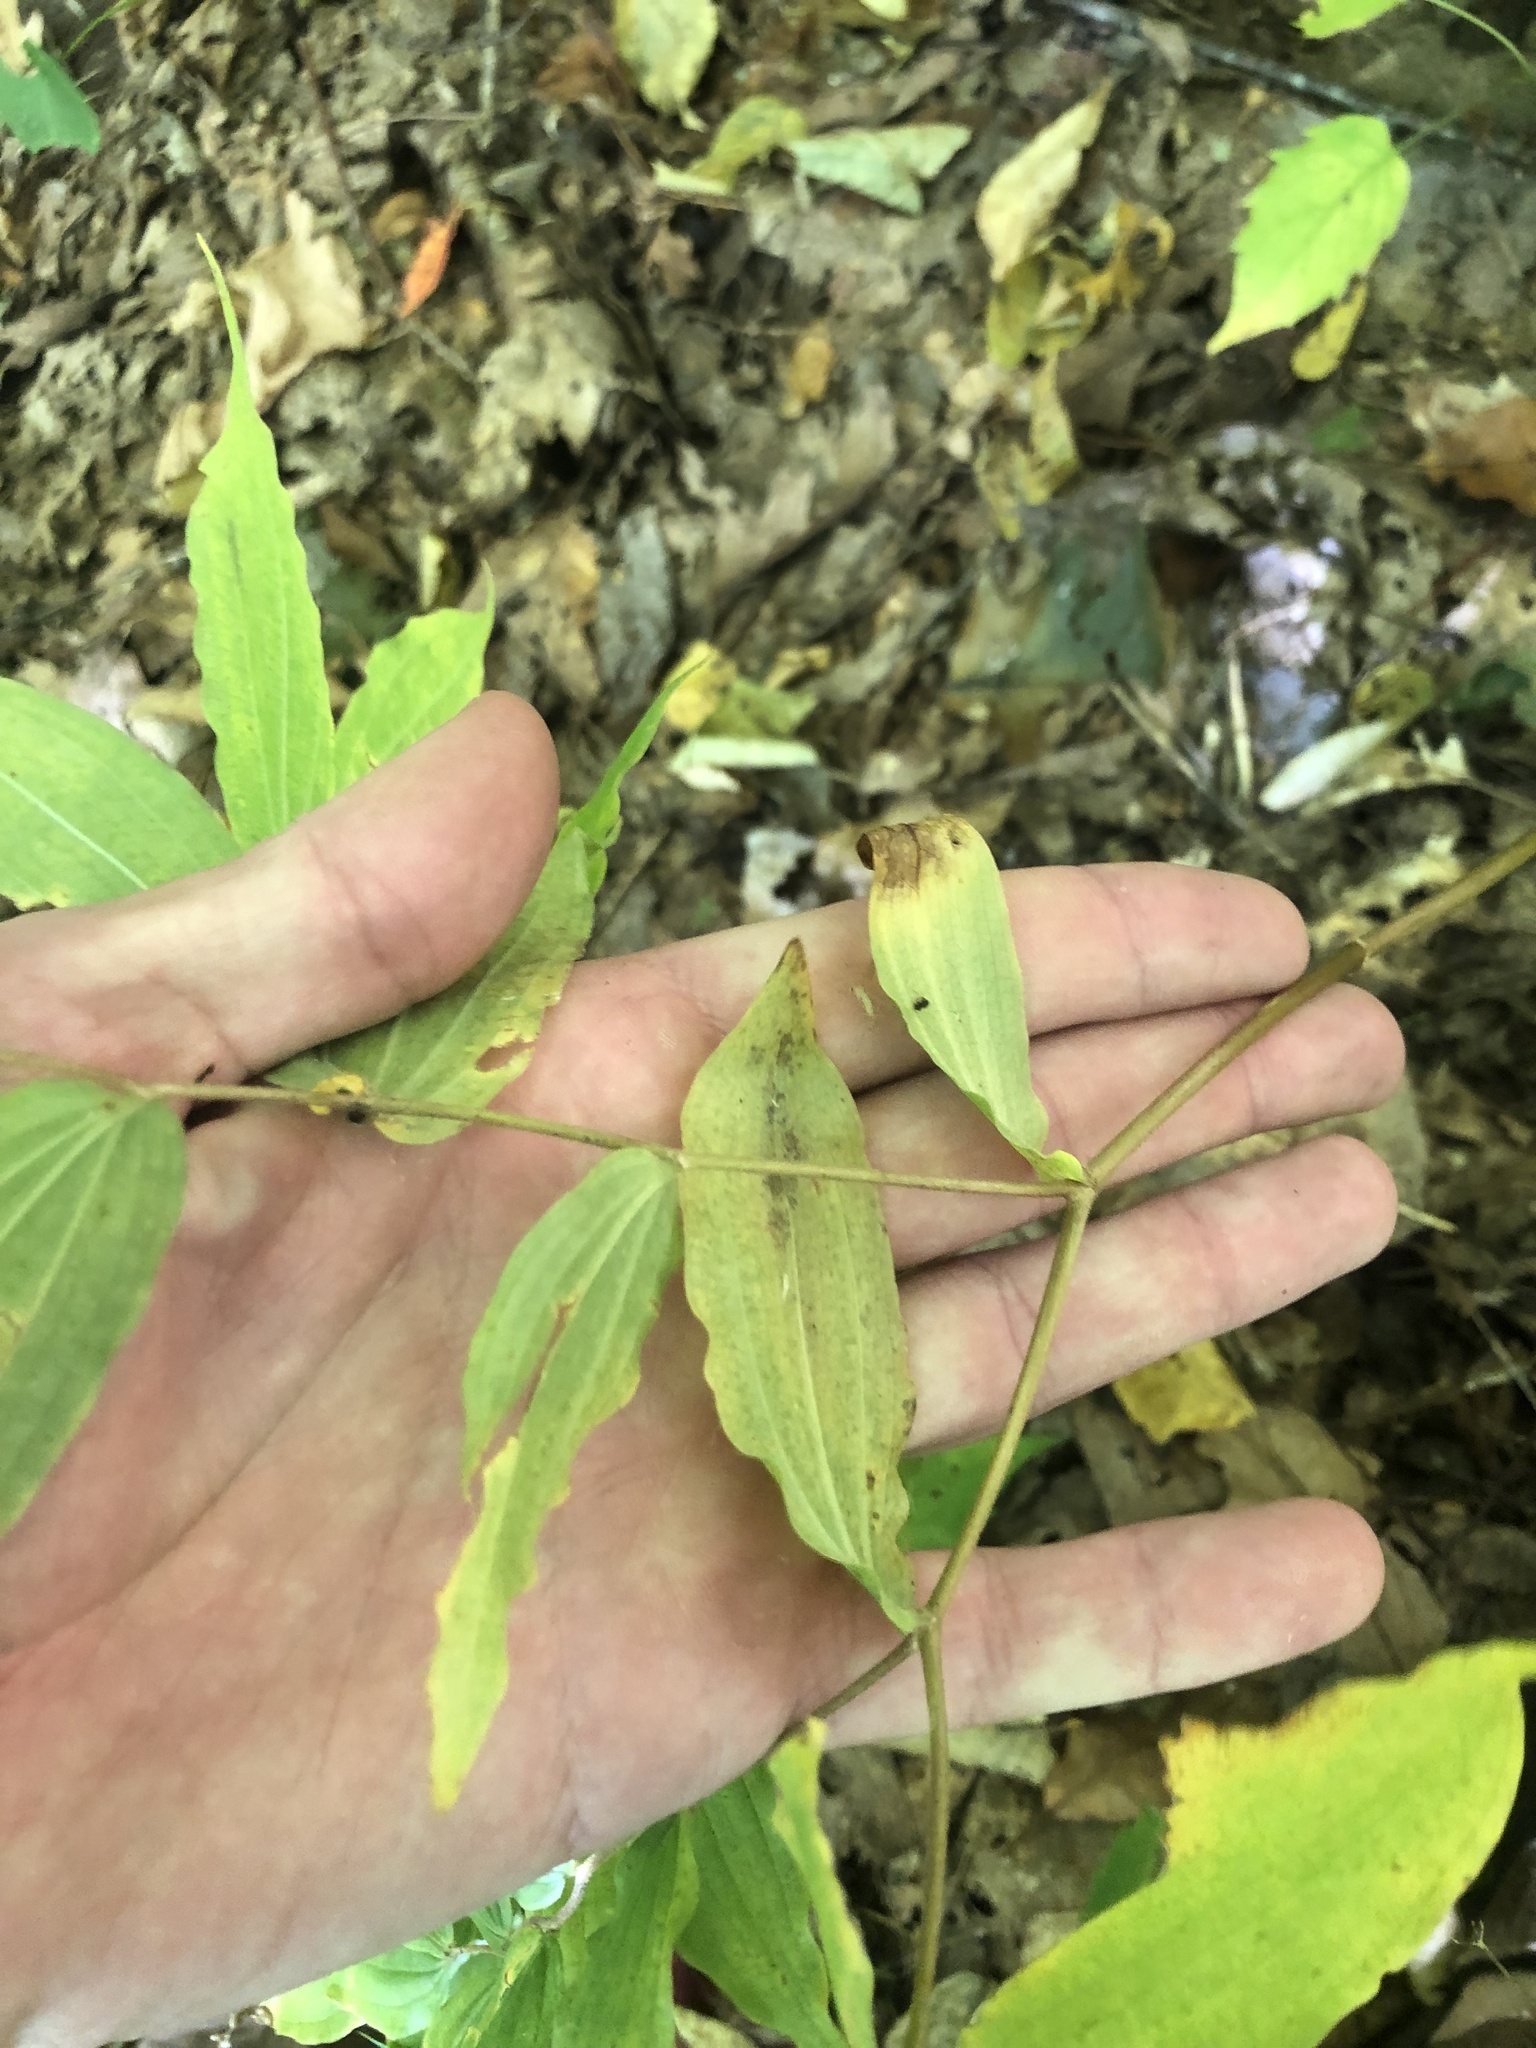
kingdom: Plantae
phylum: Tracheophyta
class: Liliopsida
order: Liliales
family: Liliaceae
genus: Prosartes
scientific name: Prosartes lanuginosa
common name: Hairy mandarin
